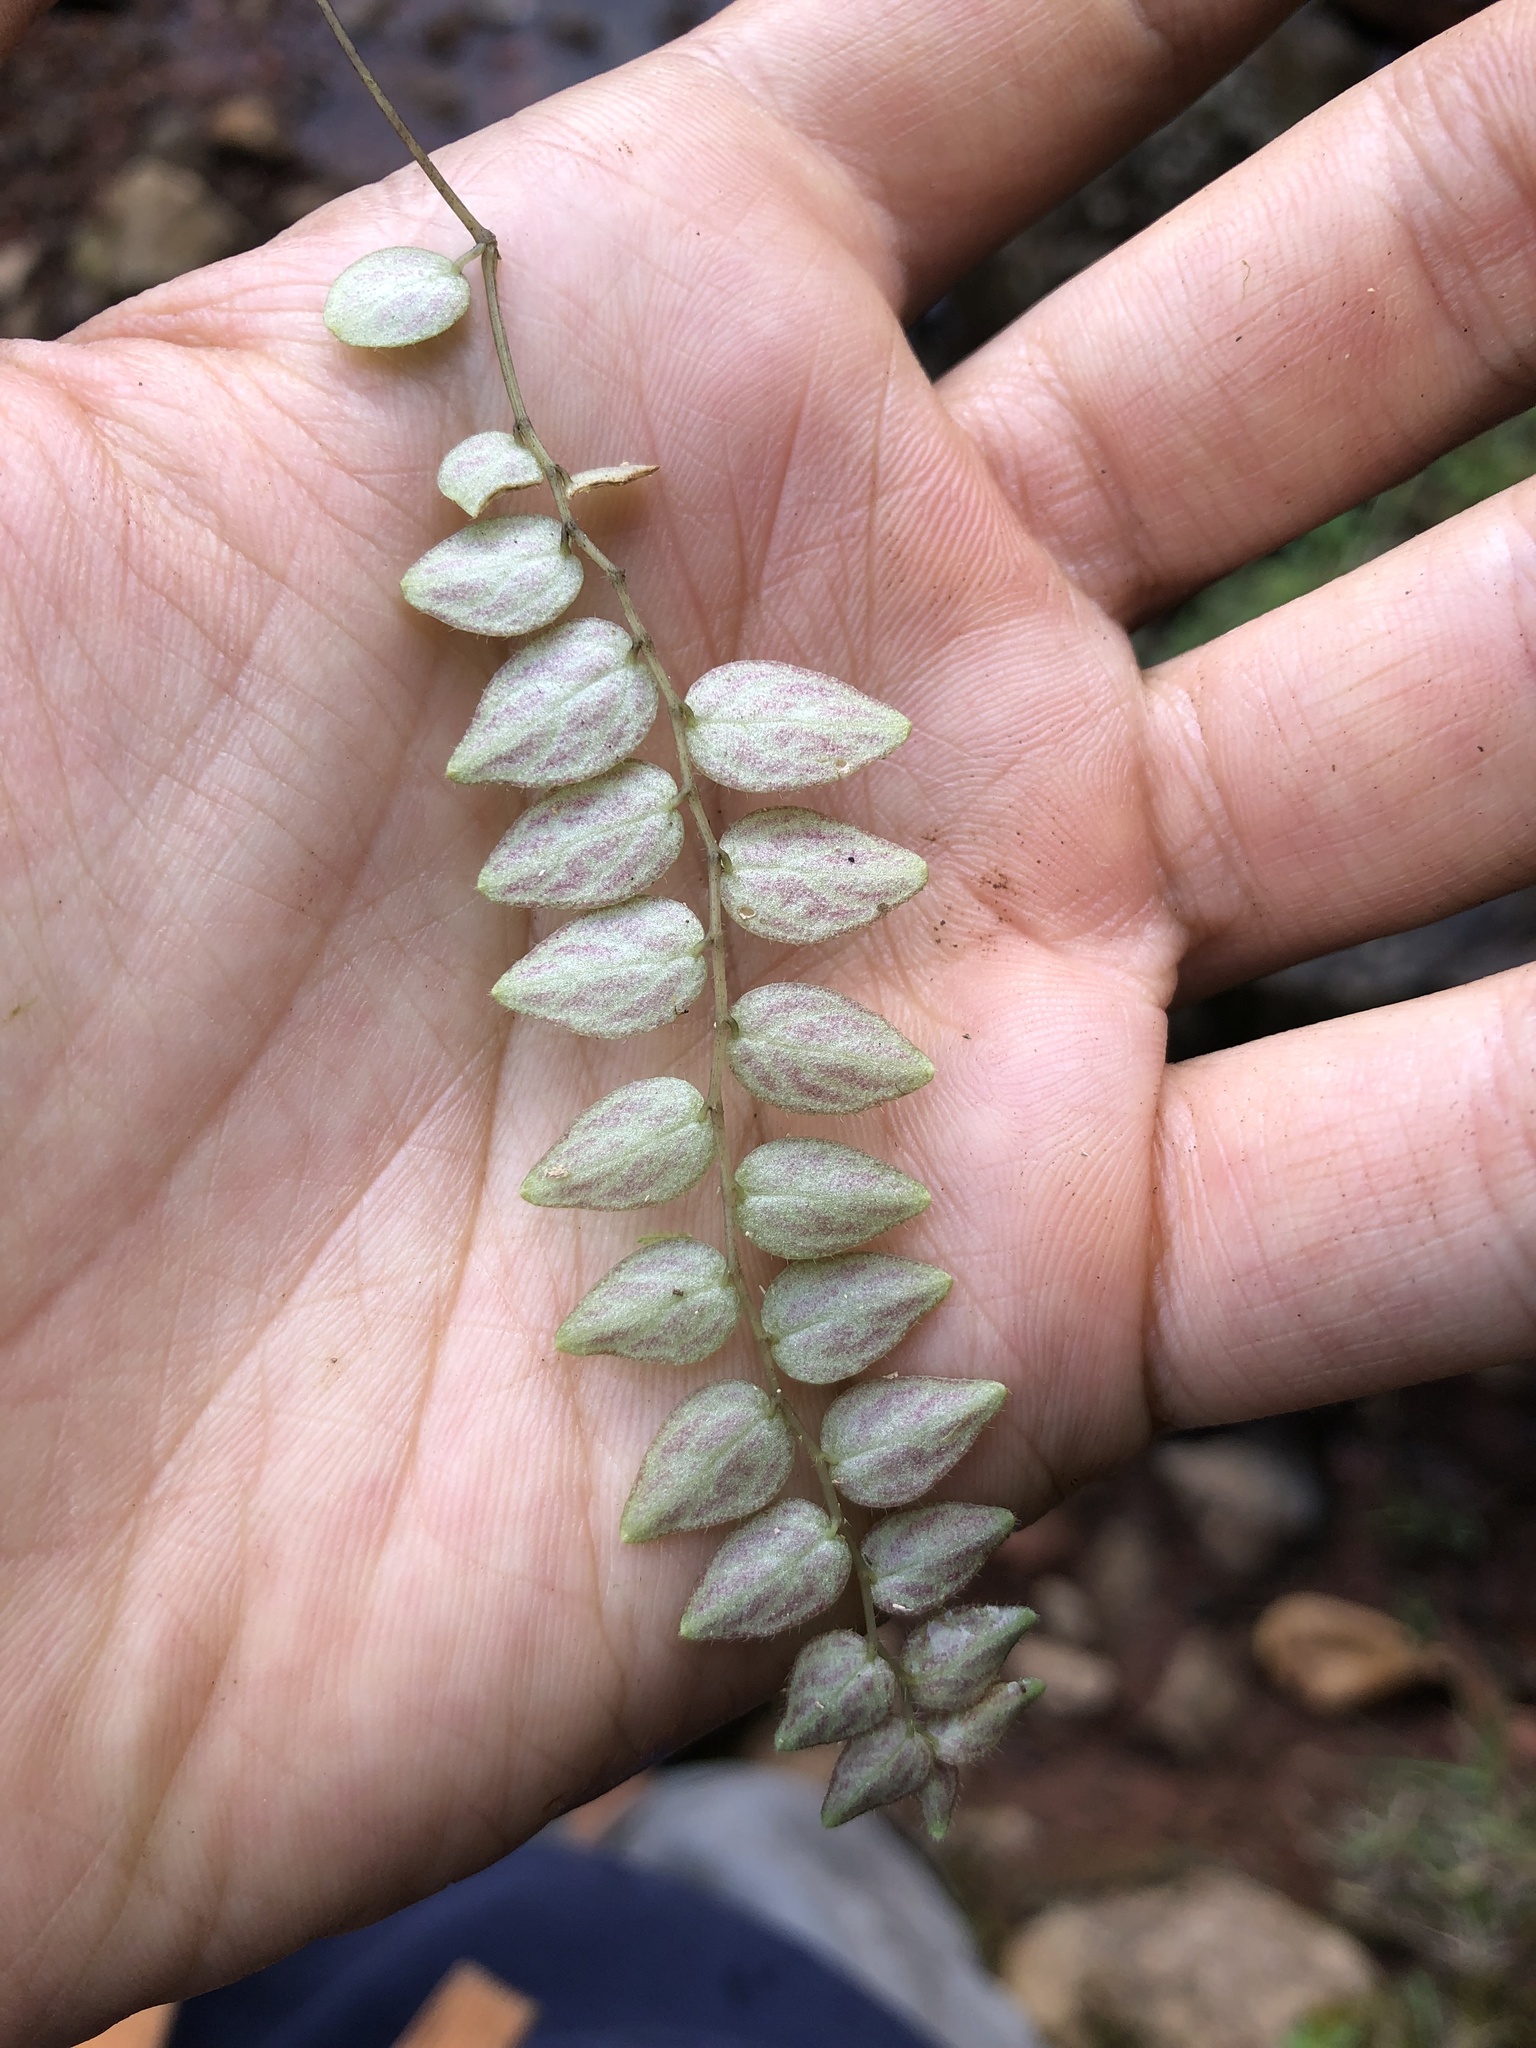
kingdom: Plantae
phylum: Tracheophyta
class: Magnoliopsida
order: Piperales
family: Piperaceae
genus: Peperomia
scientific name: Peperomia tovariana
